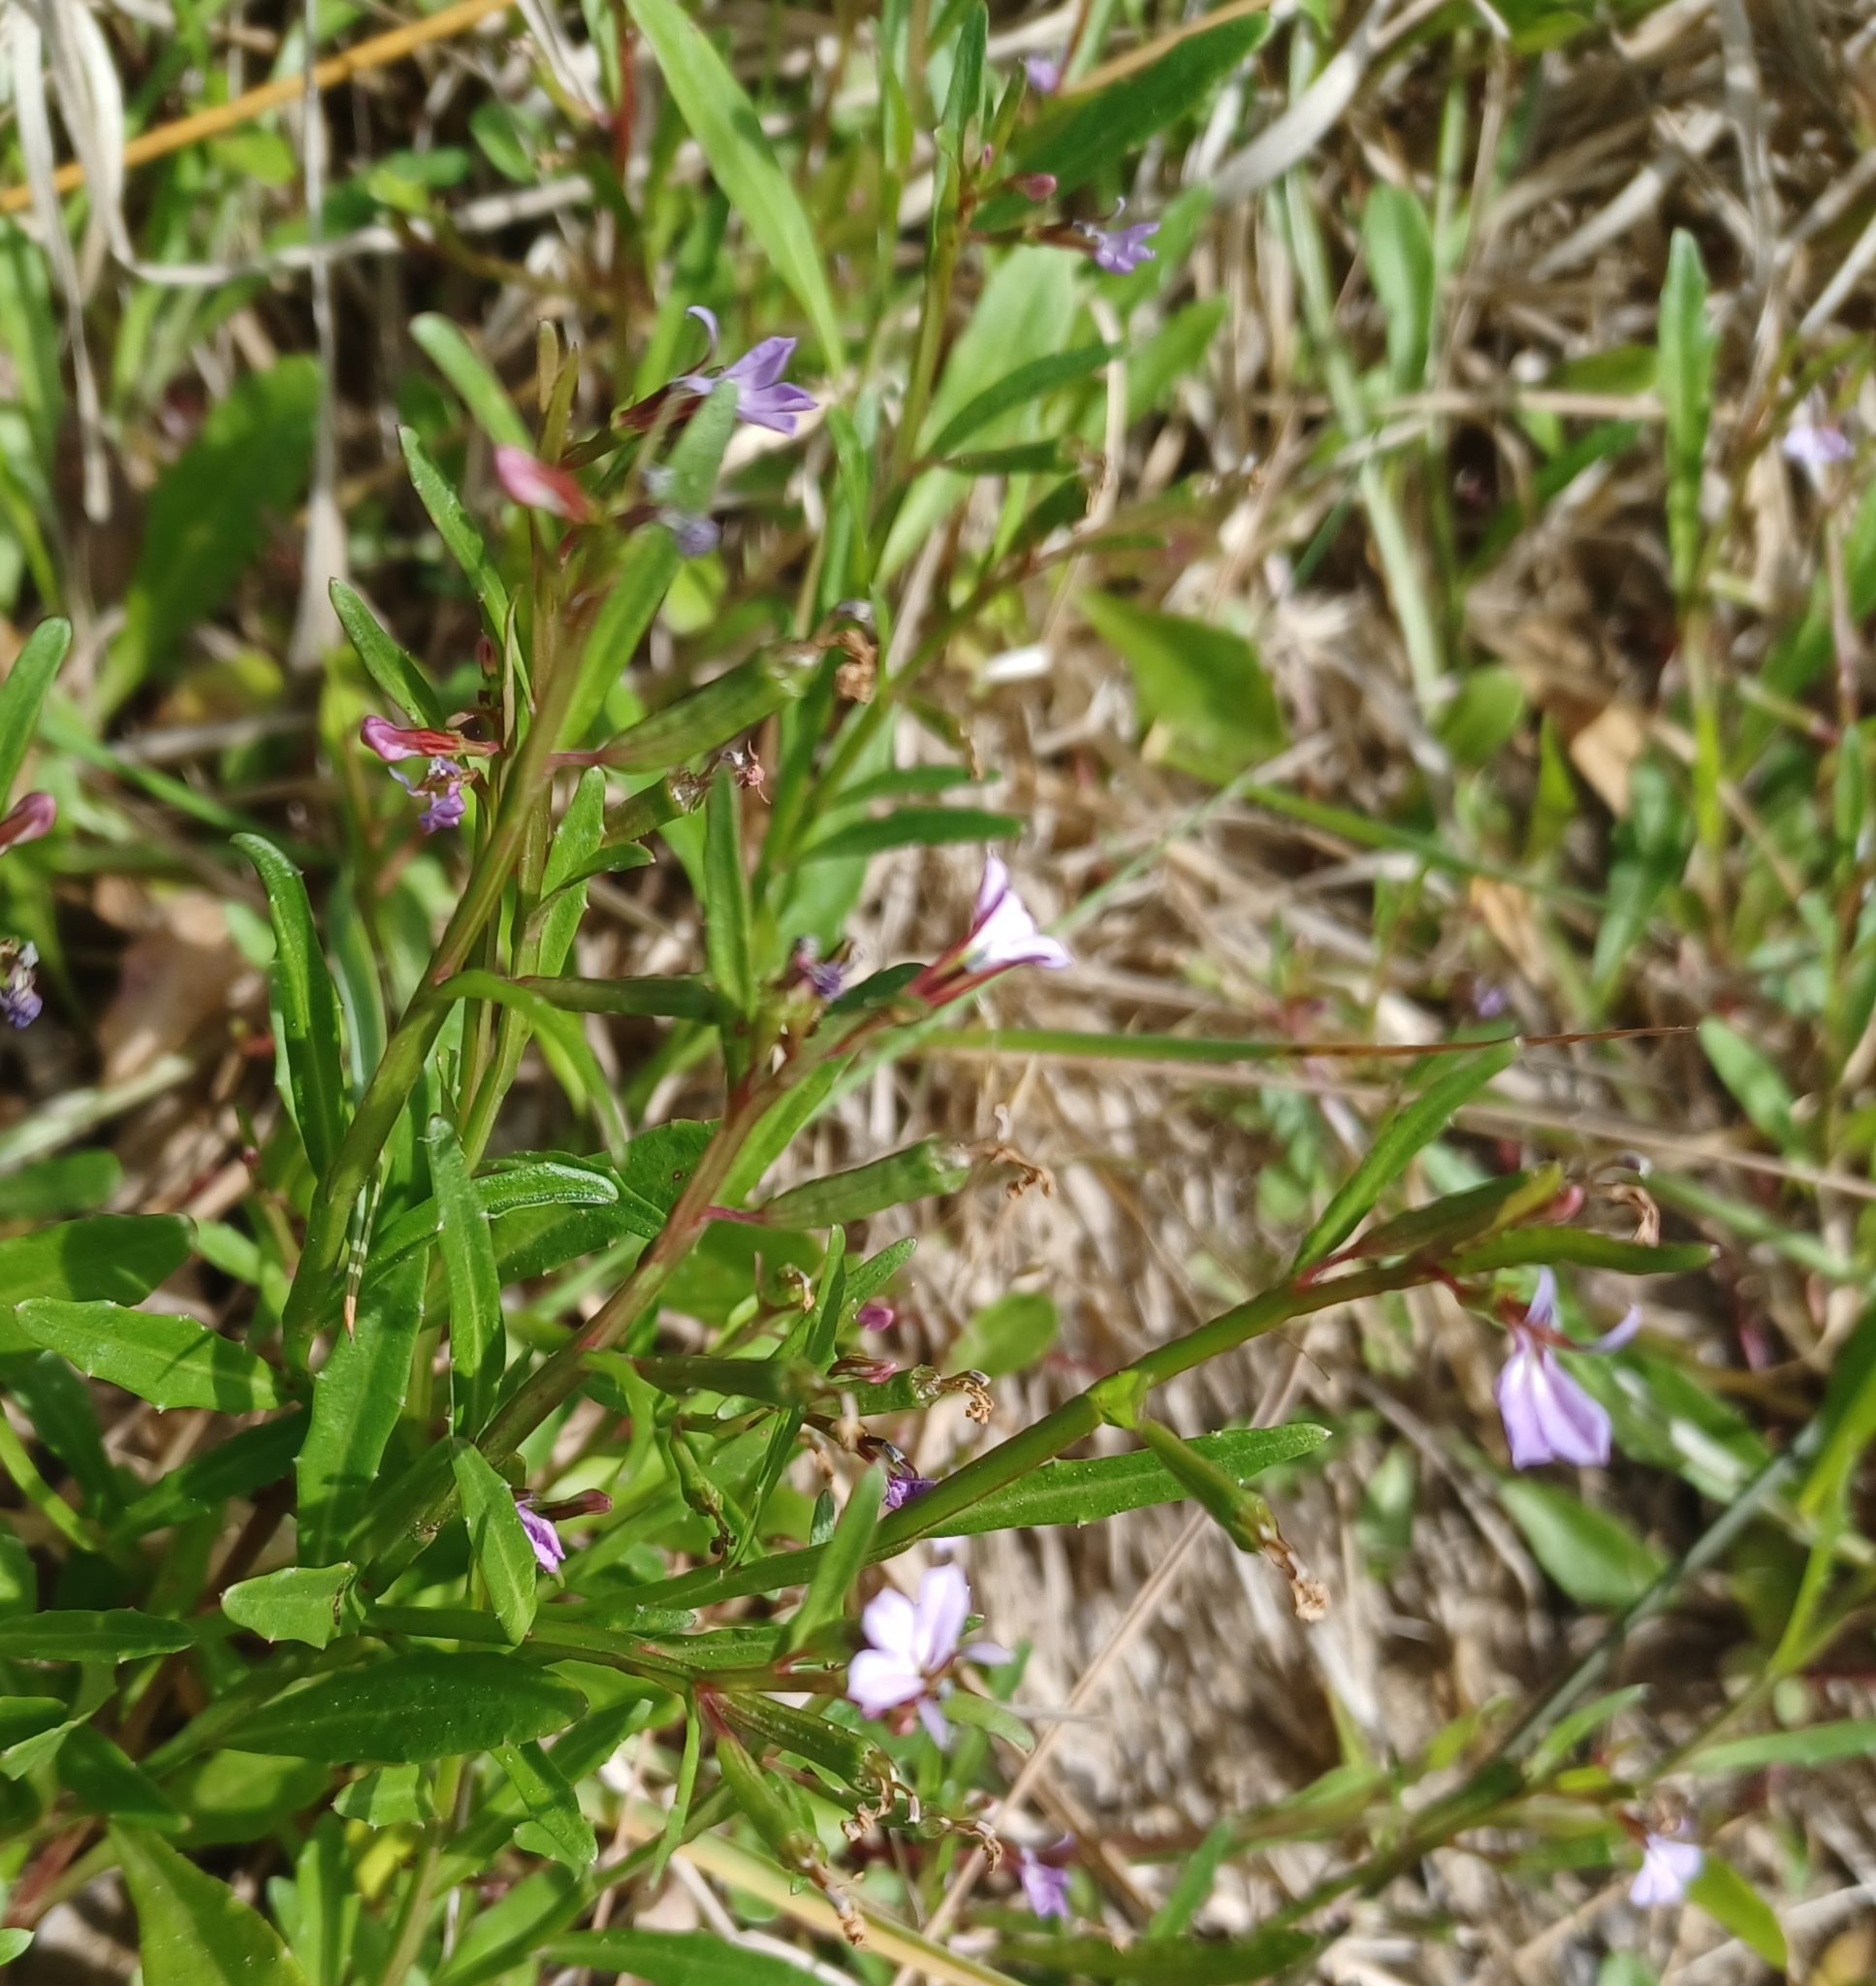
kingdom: Plantae
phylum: Tracheophyta
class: Magnoliopsida
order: Asterales
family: Campanulaceae
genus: Lobelia
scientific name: Lobelia anceps
